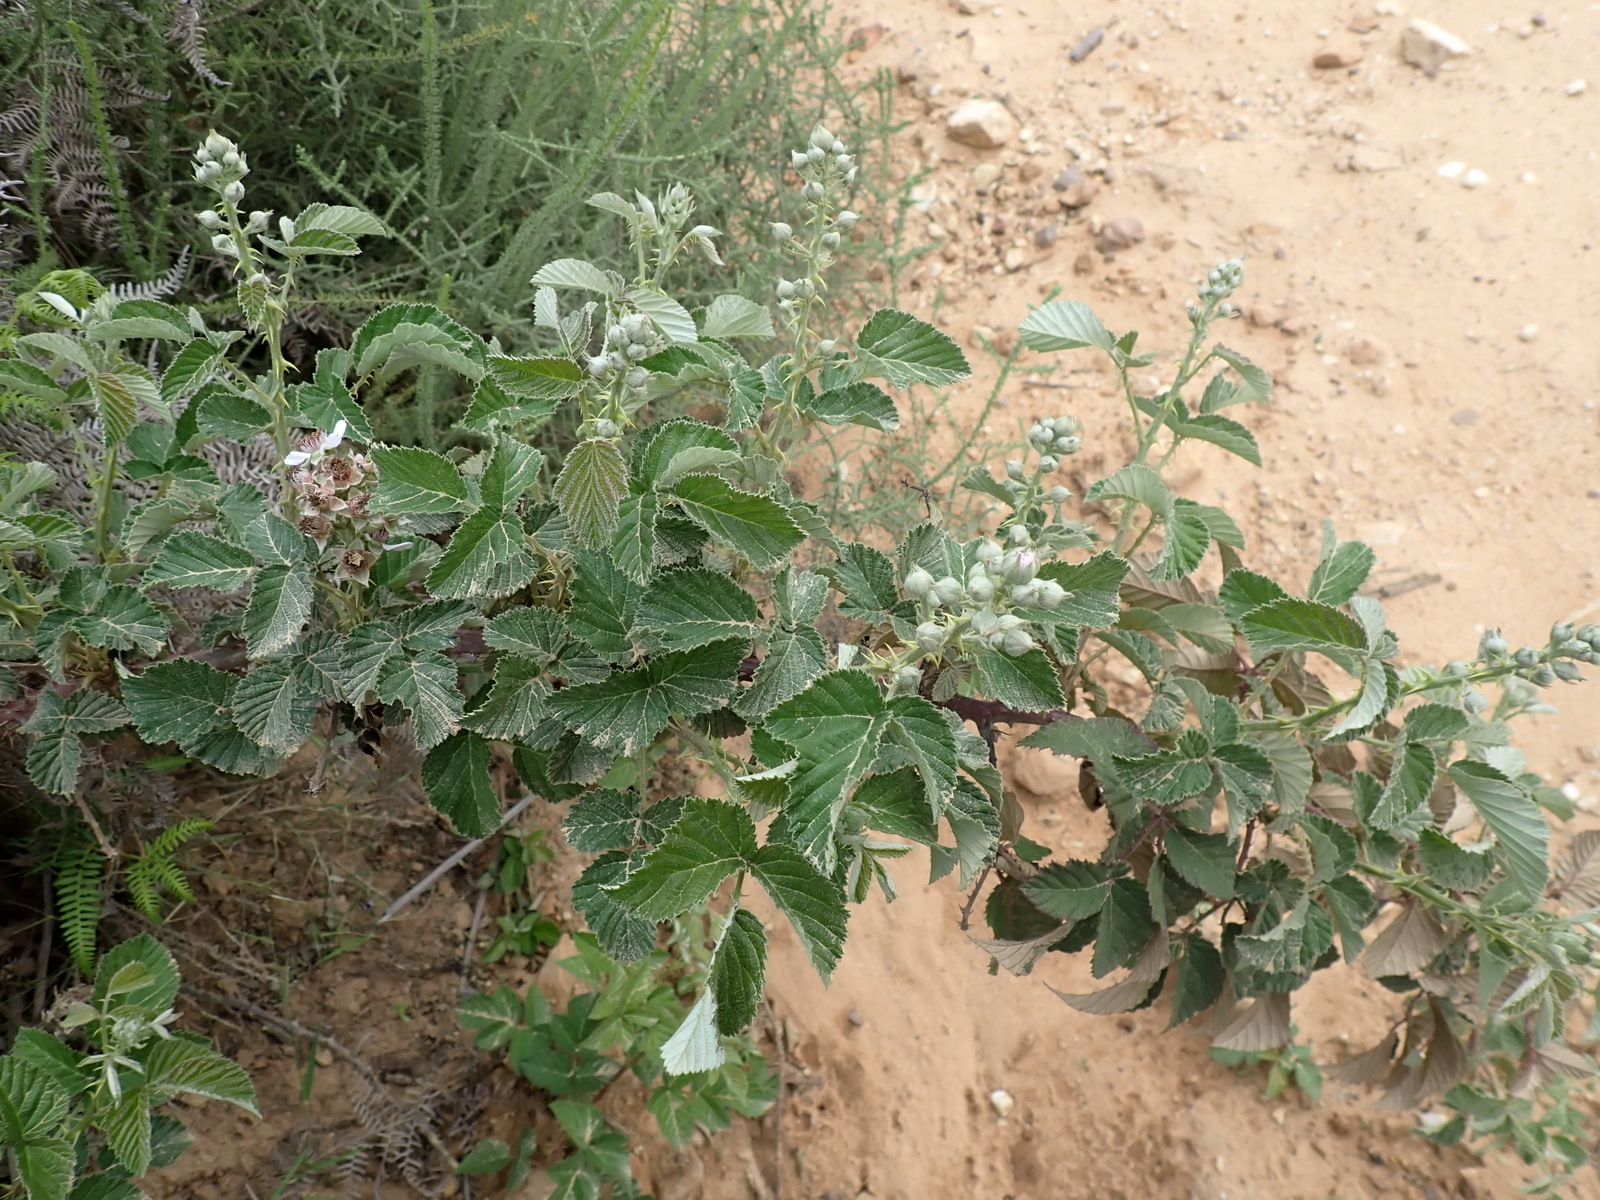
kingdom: Plantae
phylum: Tracheophyta
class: Magnoliopsida
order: Rosales
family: Rosaceae
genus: Rubus
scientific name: Rubus rigidus
